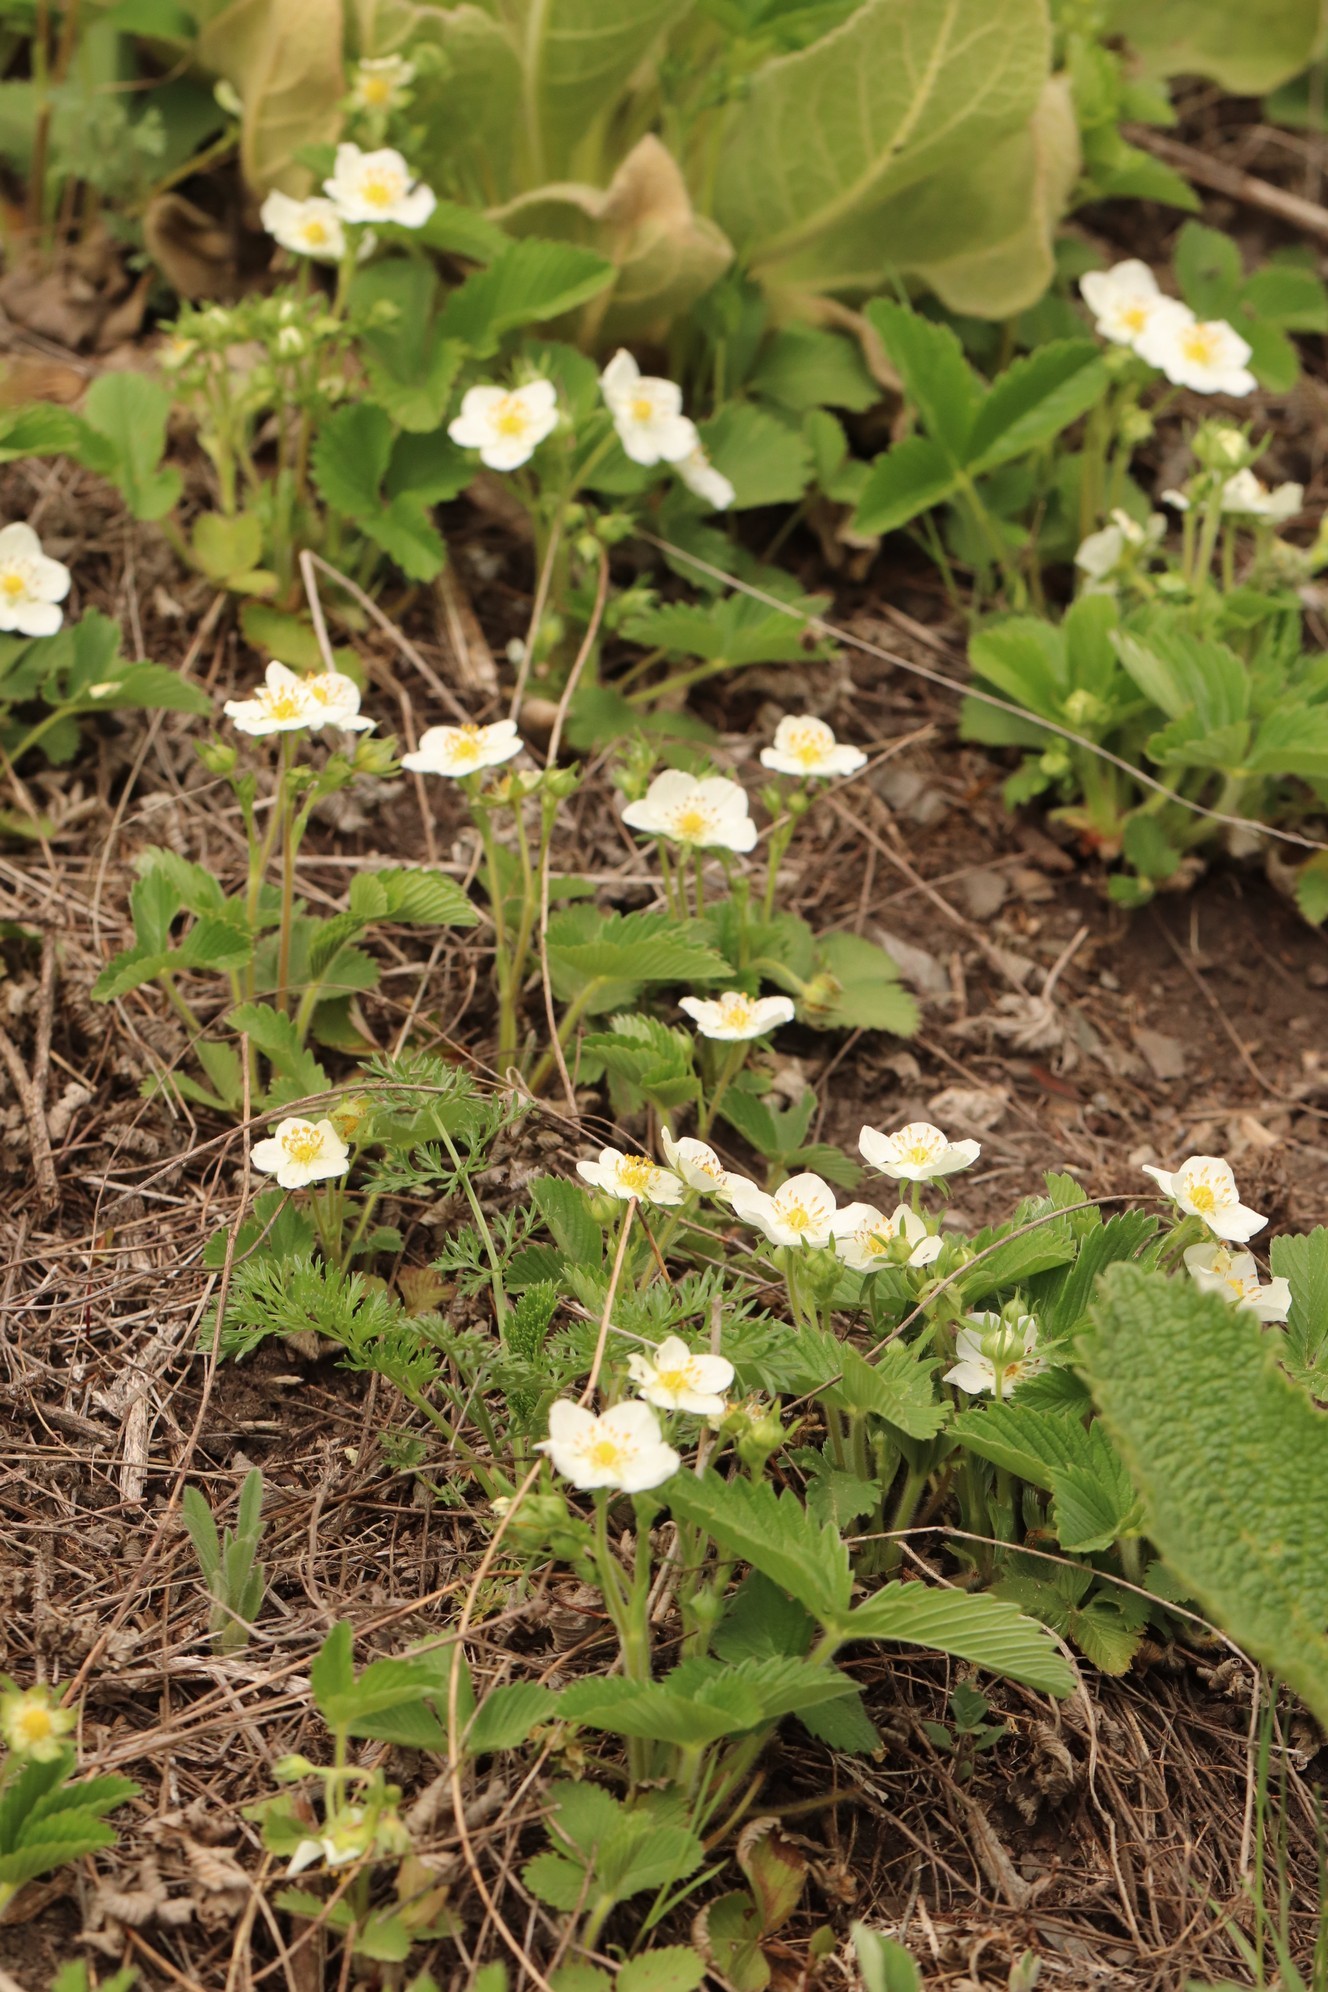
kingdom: Plantae
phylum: Tracheophyta
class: Magnoliopsida
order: Rosales
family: Rosaceae
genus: Fragaria
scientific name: Fragaria viridis
